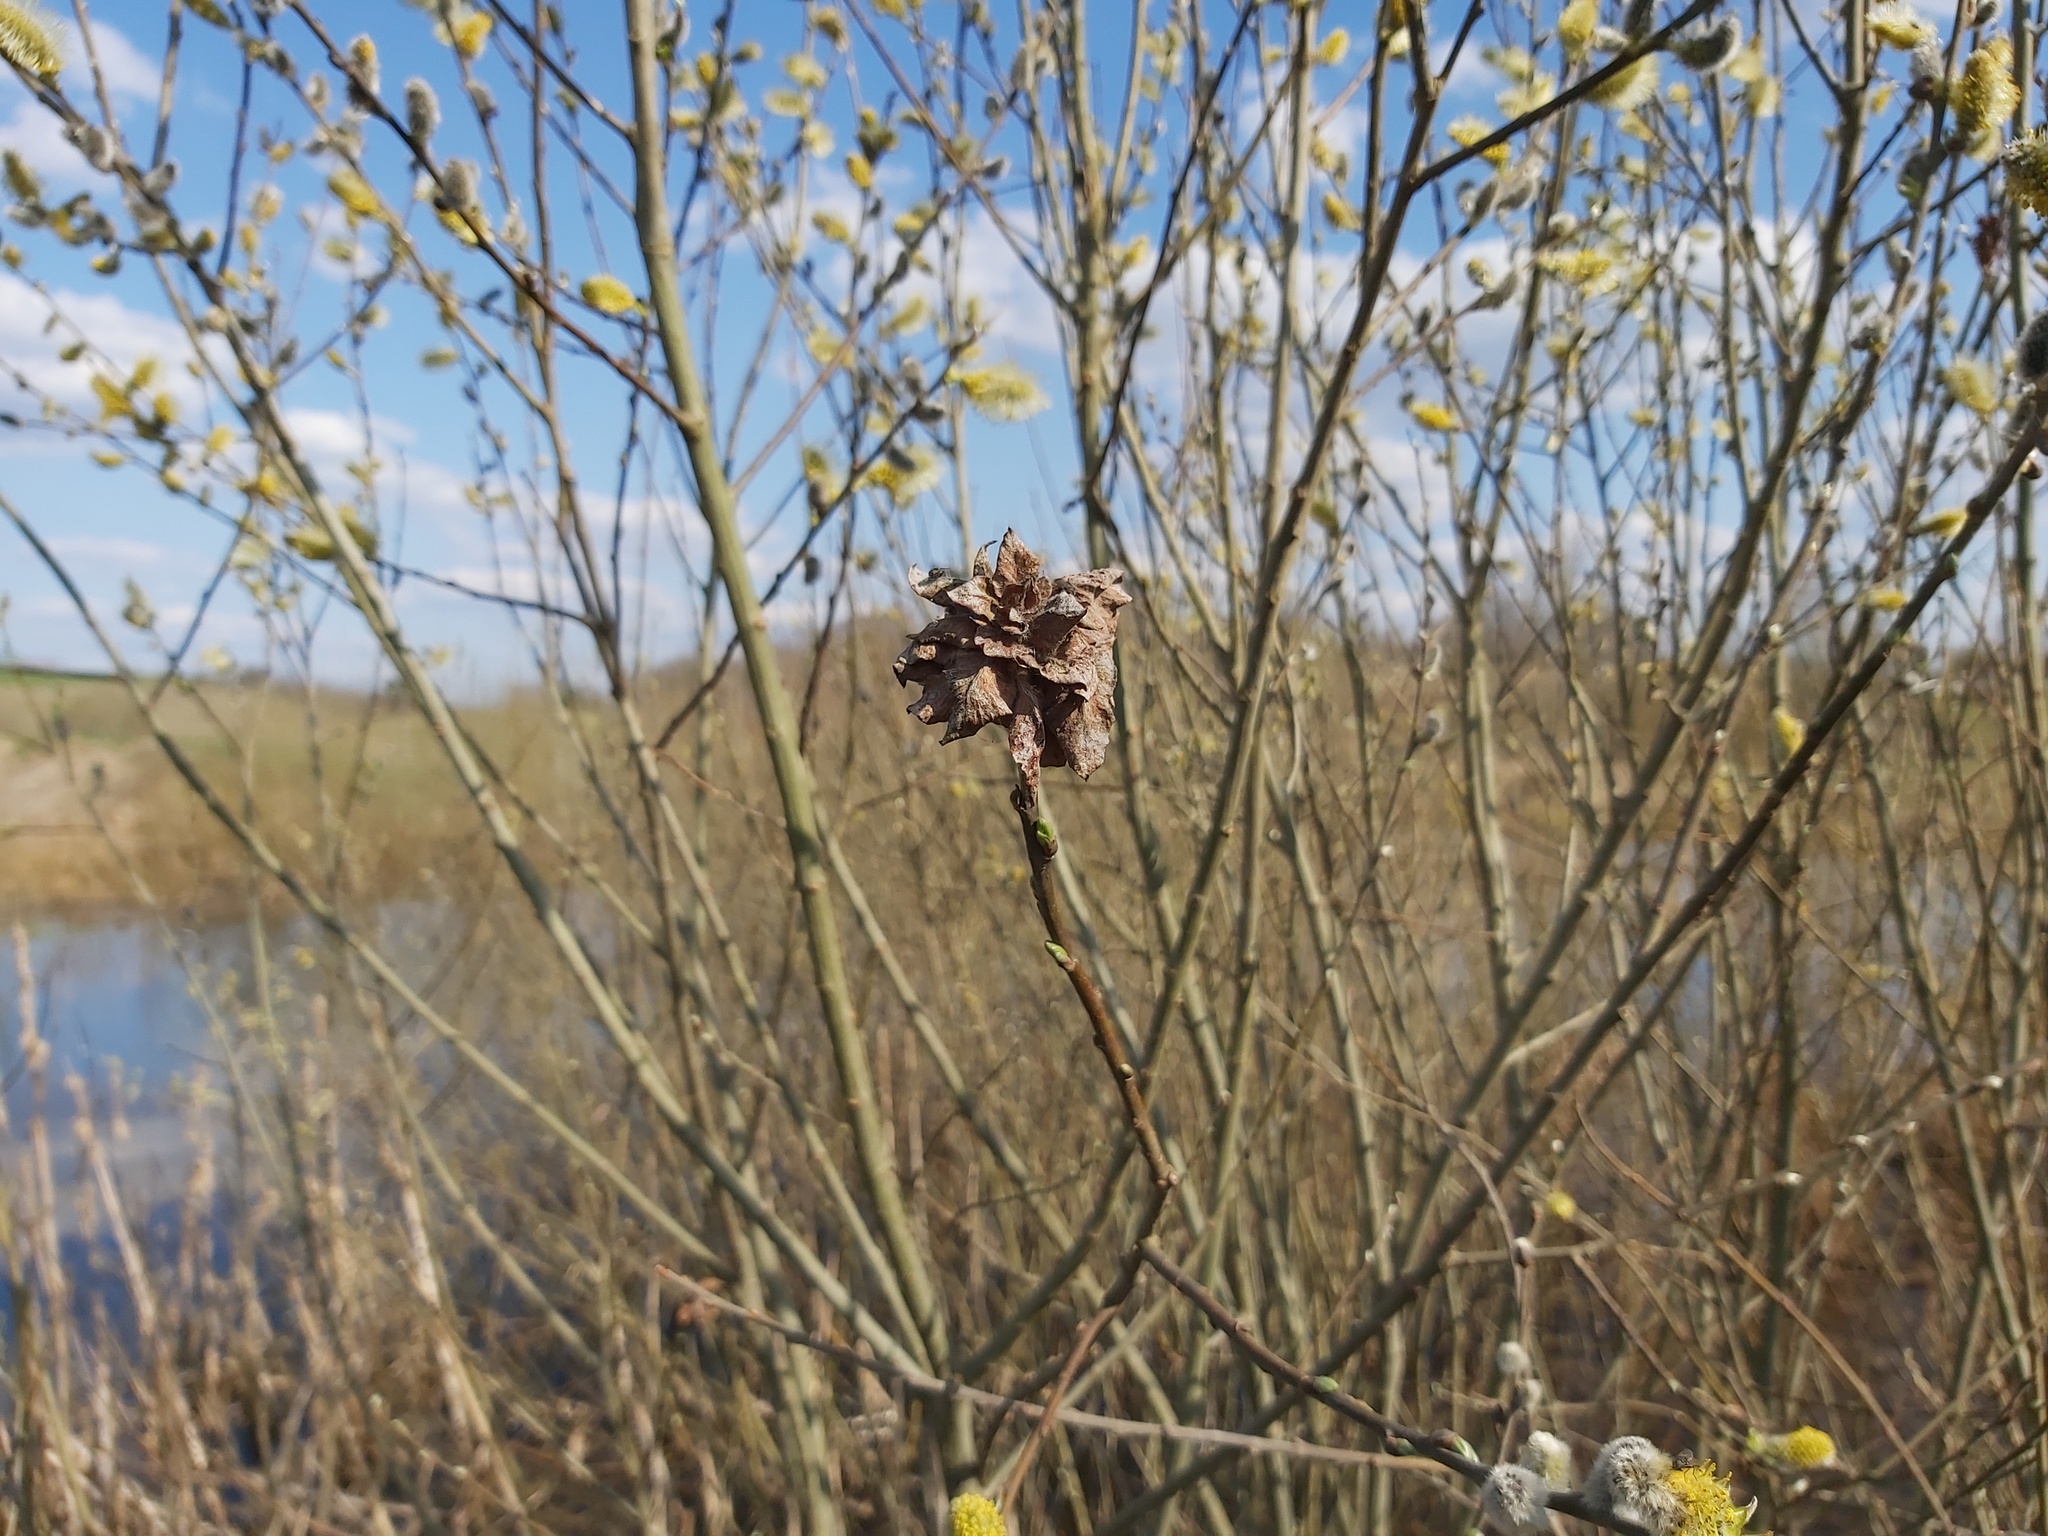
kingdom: Animalia
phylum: Arthropoda
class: Insecta
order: Diptera
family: Cecidomyiidae
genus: Rabdophaga
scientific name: Rabdophaga rosaria
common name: Willow rose gall midge
